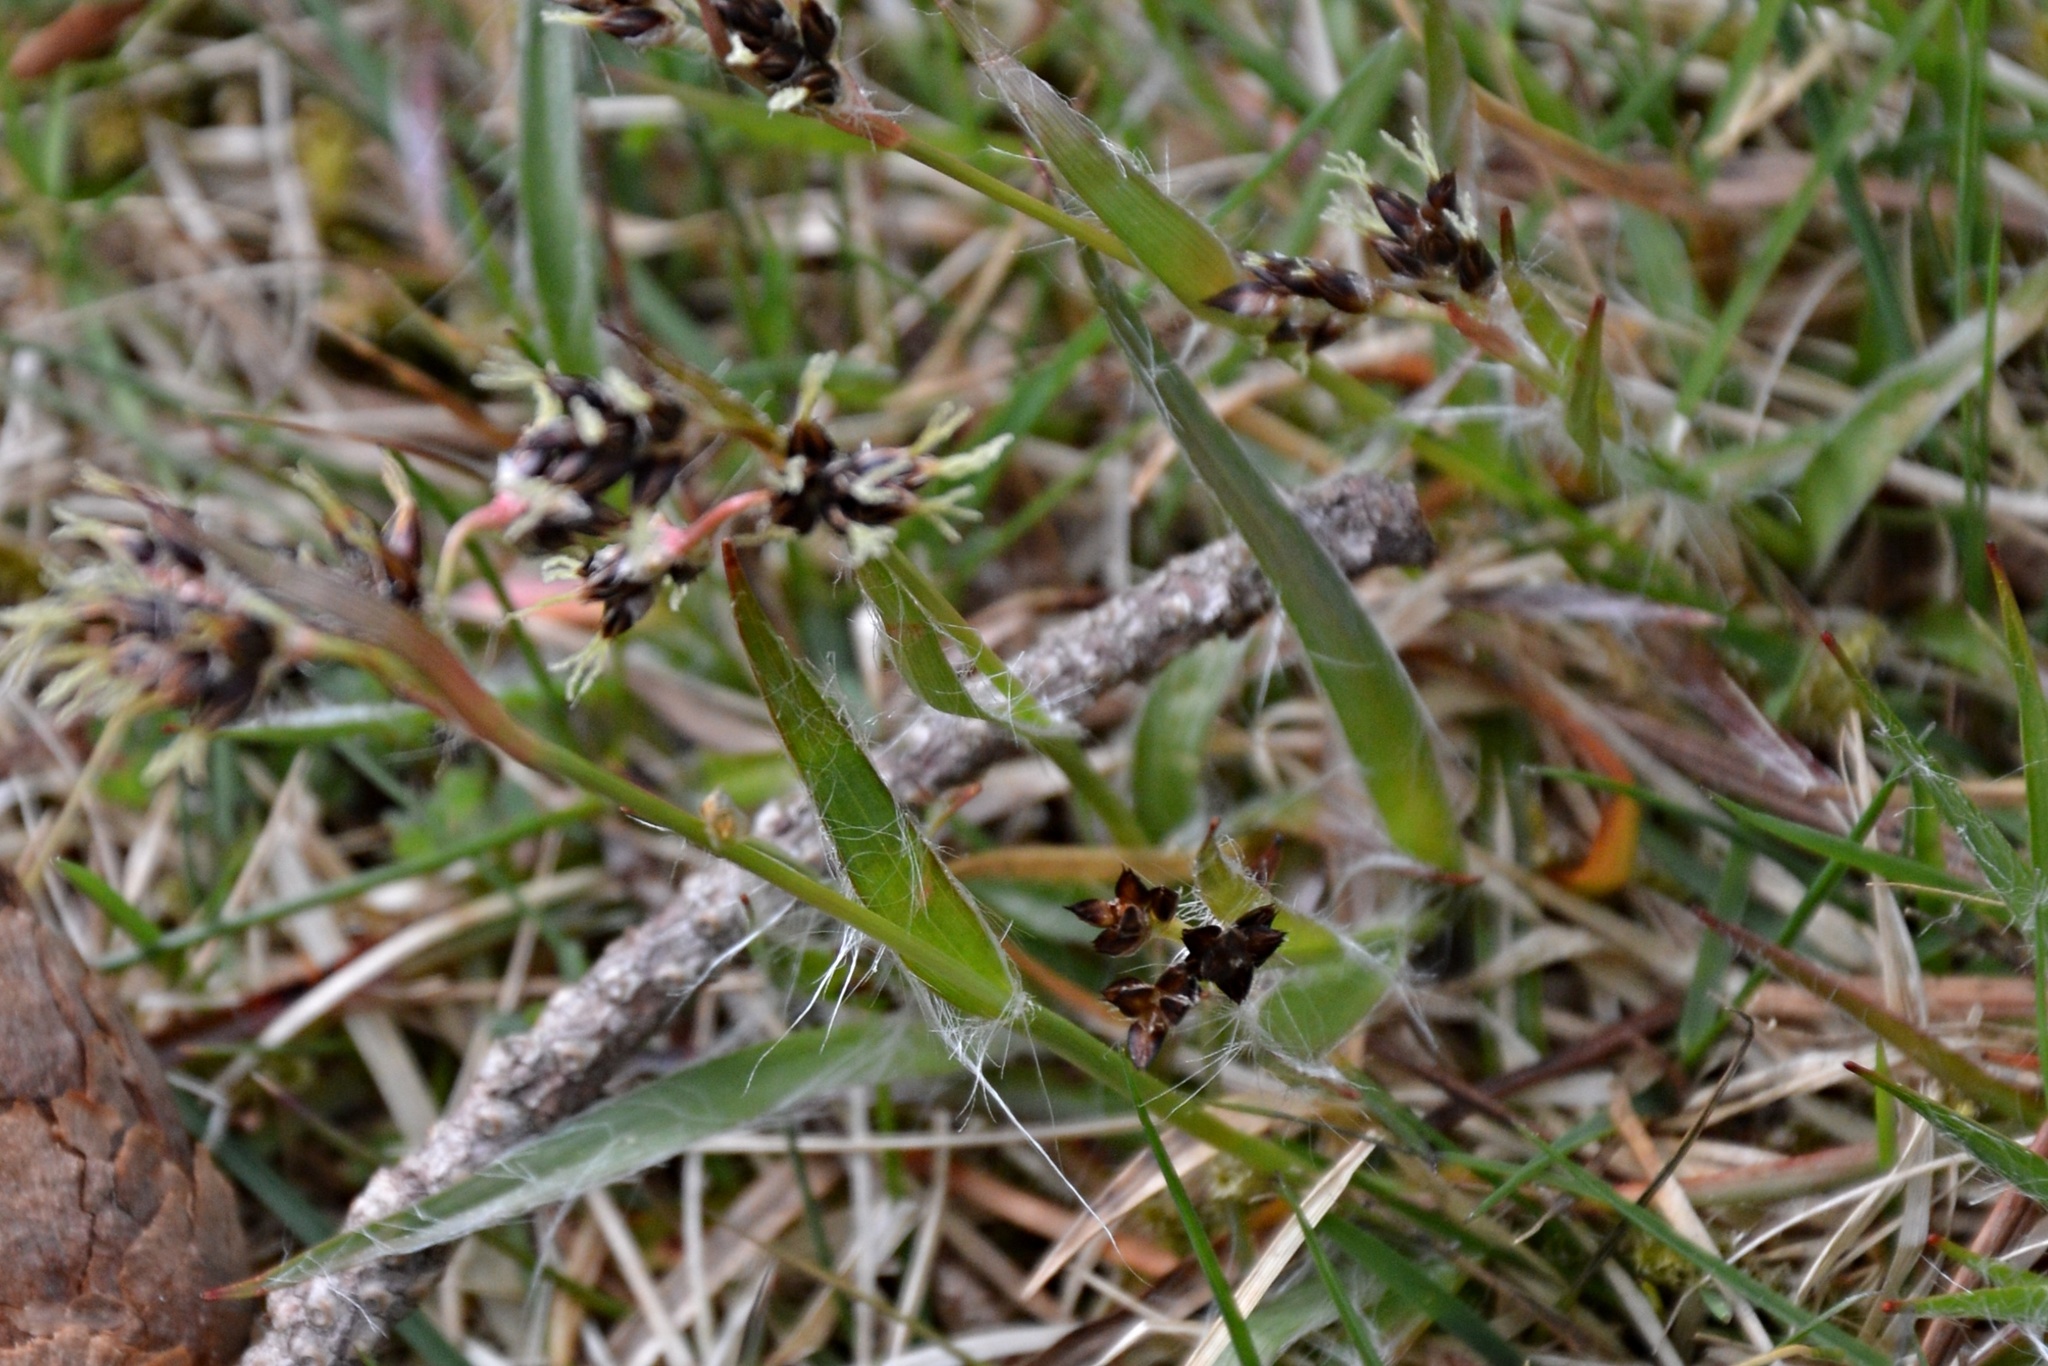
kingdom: Plantae
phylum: Tracheophyta
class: Liliopsida
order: Poales
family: Juncaceae
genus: Luzula
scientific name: Luzula campestris
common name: Field wood-rush
